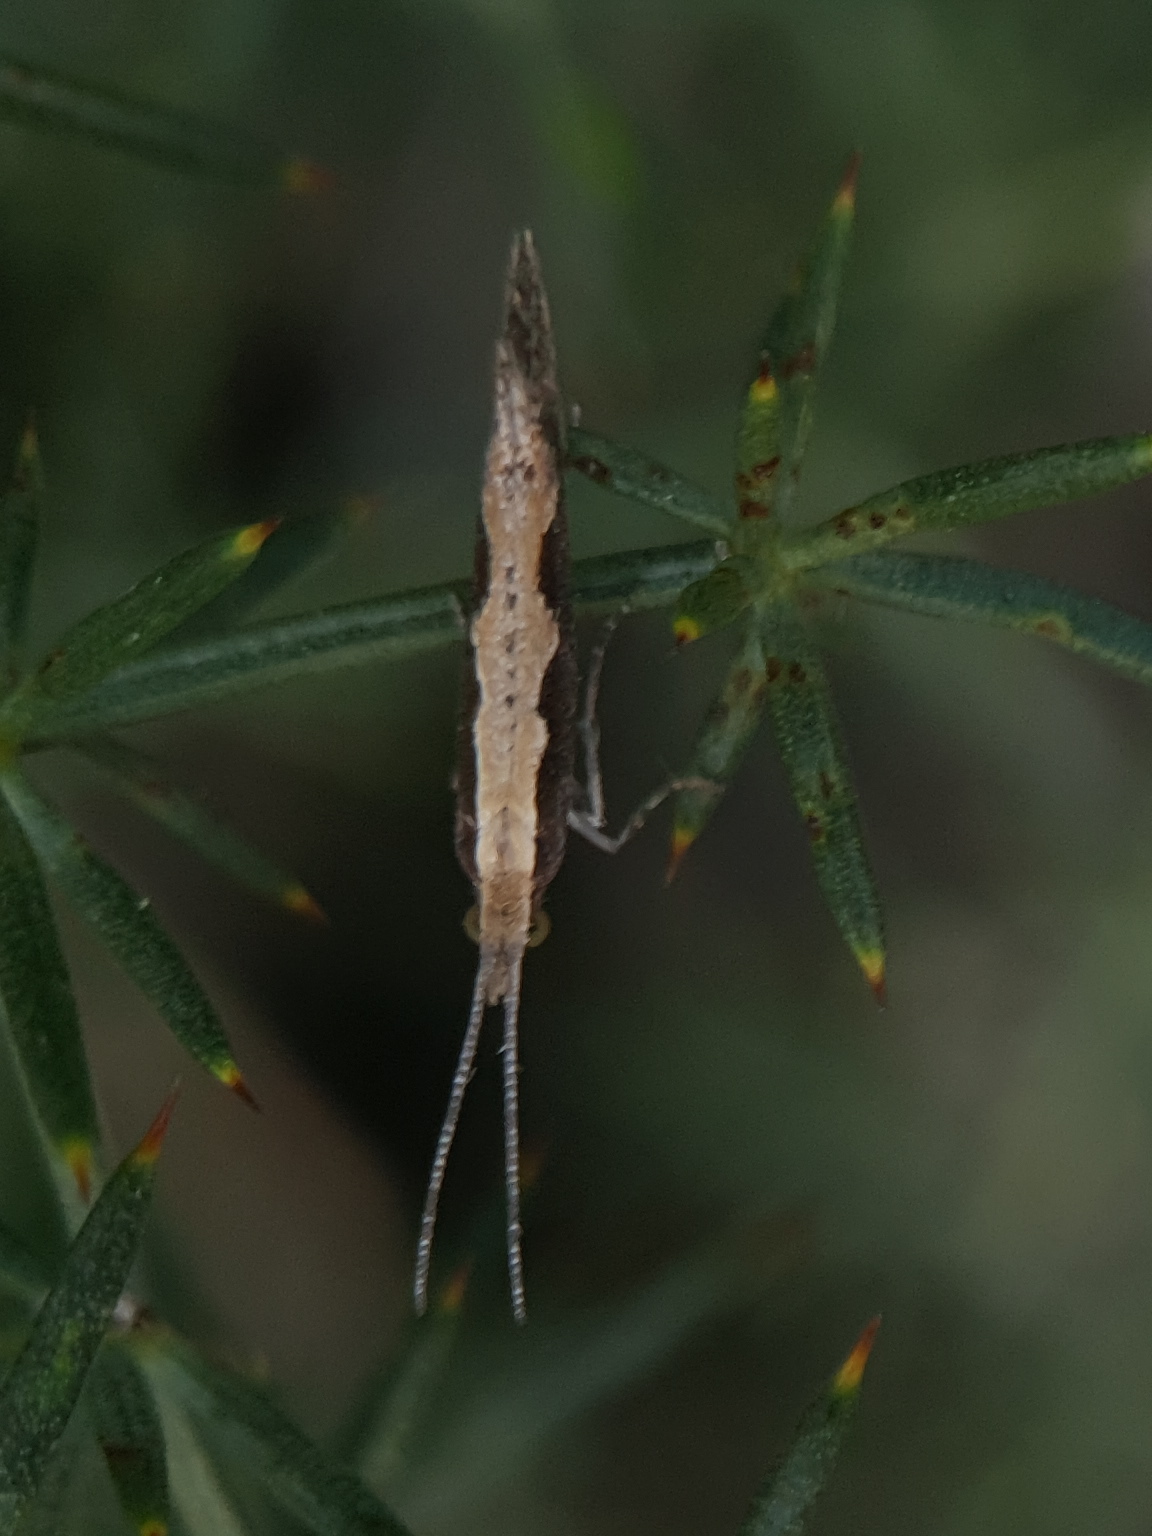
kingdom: Animalia
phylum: Arthropoda
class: Insecta
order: Lepidoptera
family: Plutellidae
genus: Plutella
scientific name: Plutella xylostella
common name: Diamond-back moth
